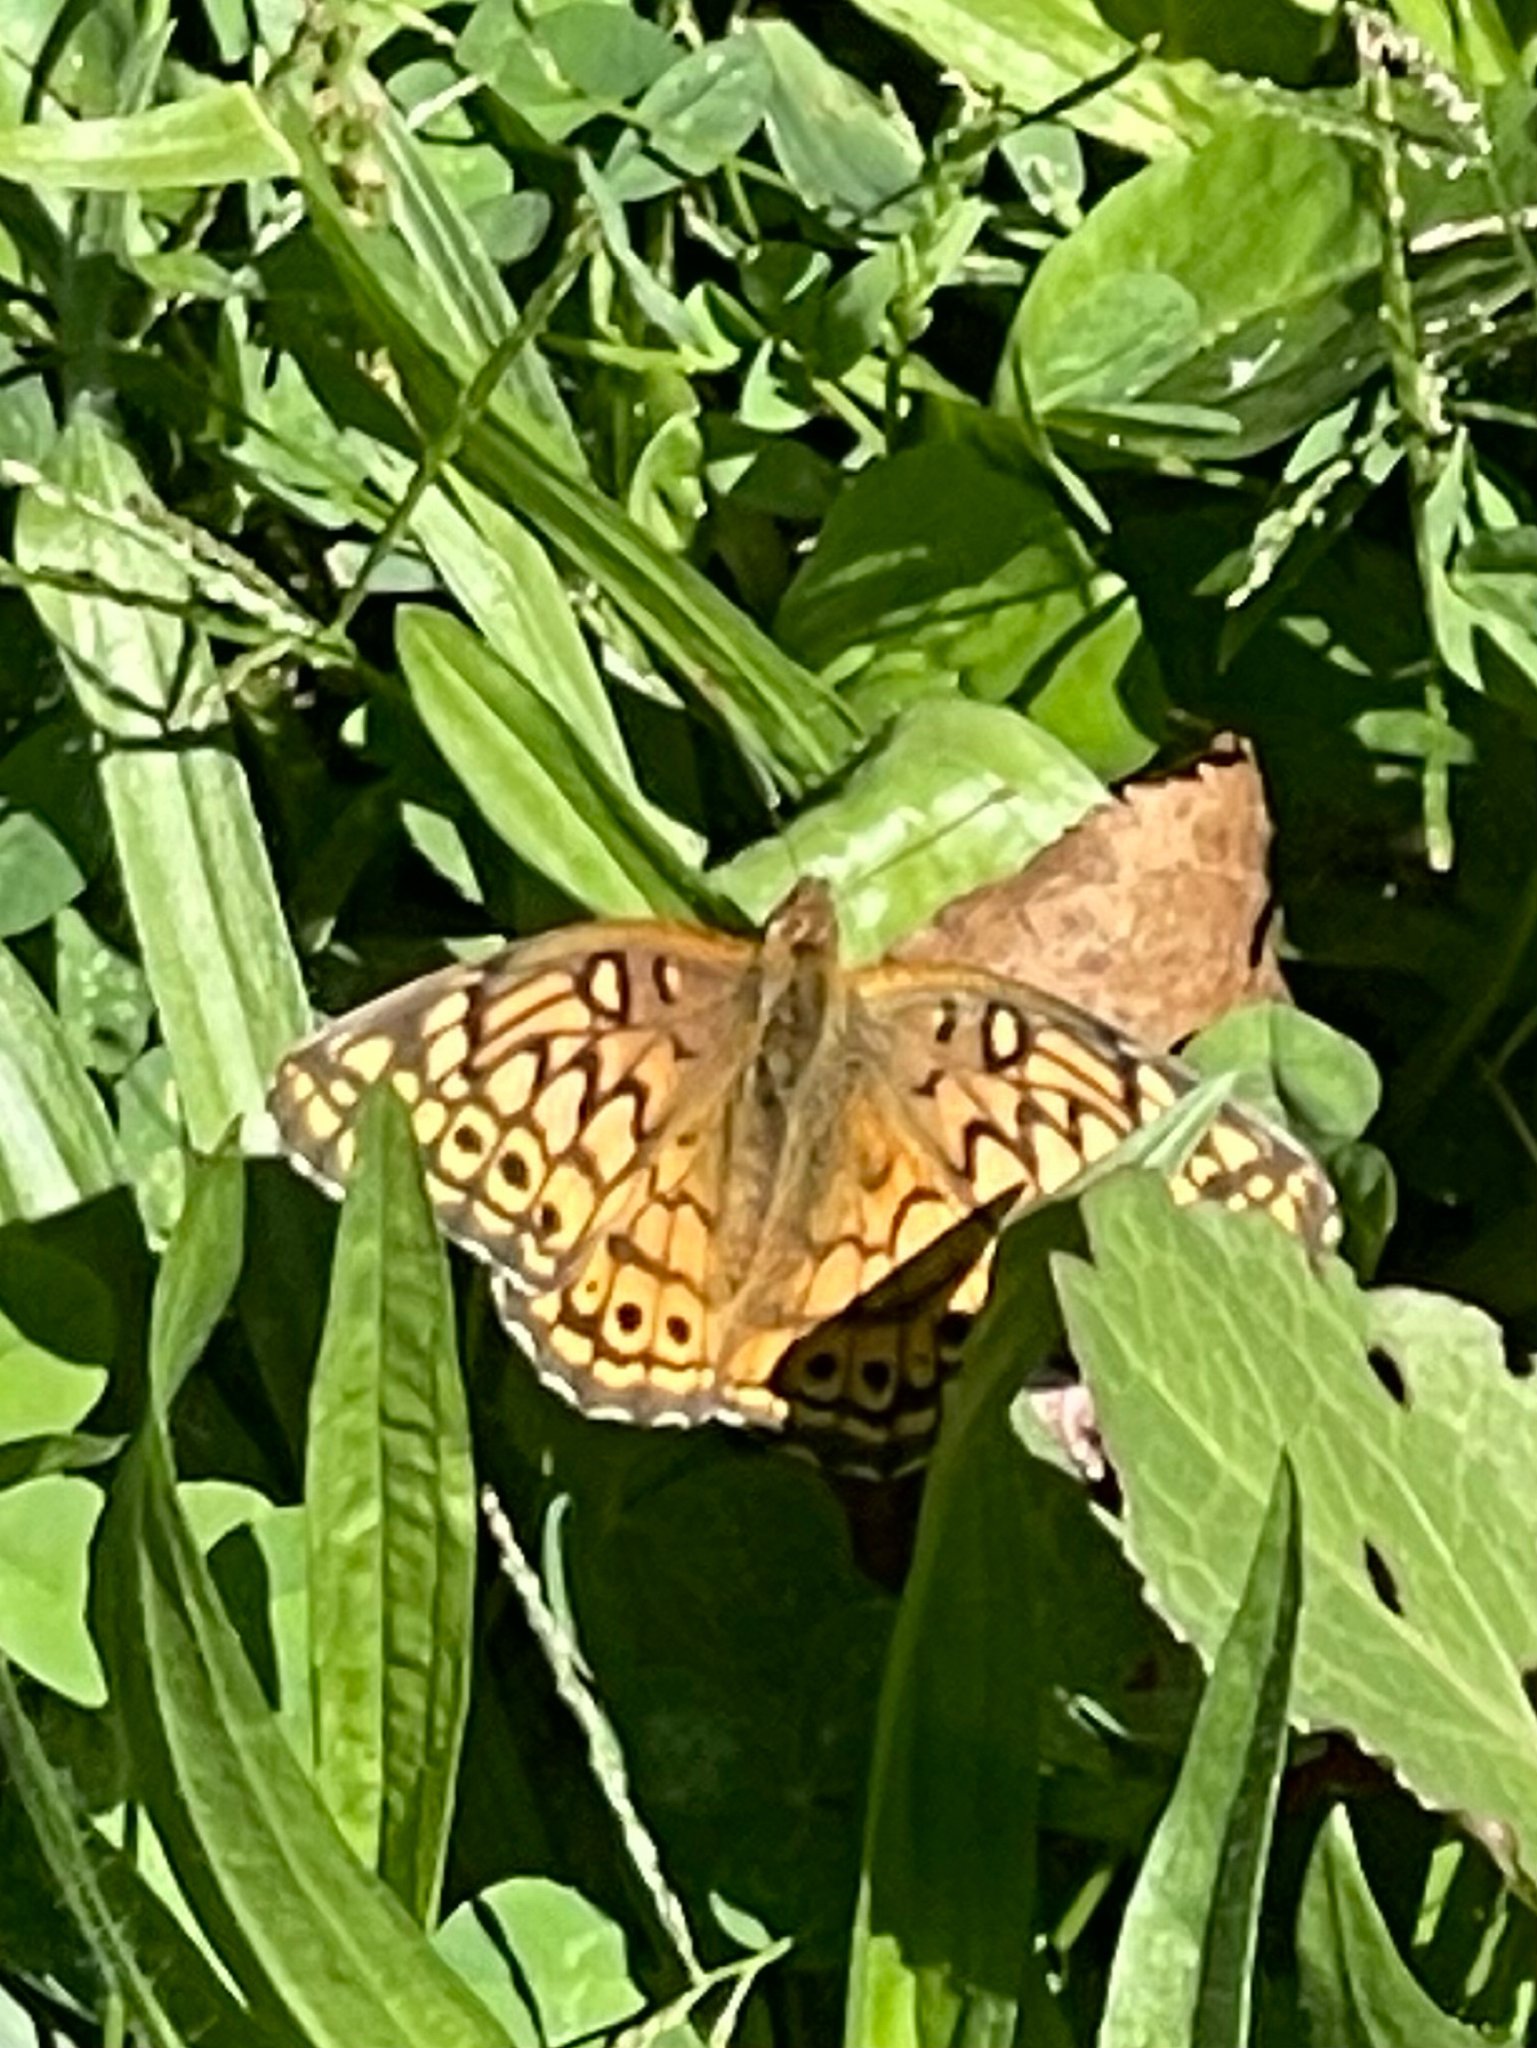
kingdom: Animalia
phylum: Arthropoda
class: Insecta
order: Lepidoptera
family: Nymphalidae
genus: Euptoieta
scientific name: Euptoieta claudia
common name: Variegated fritillary
